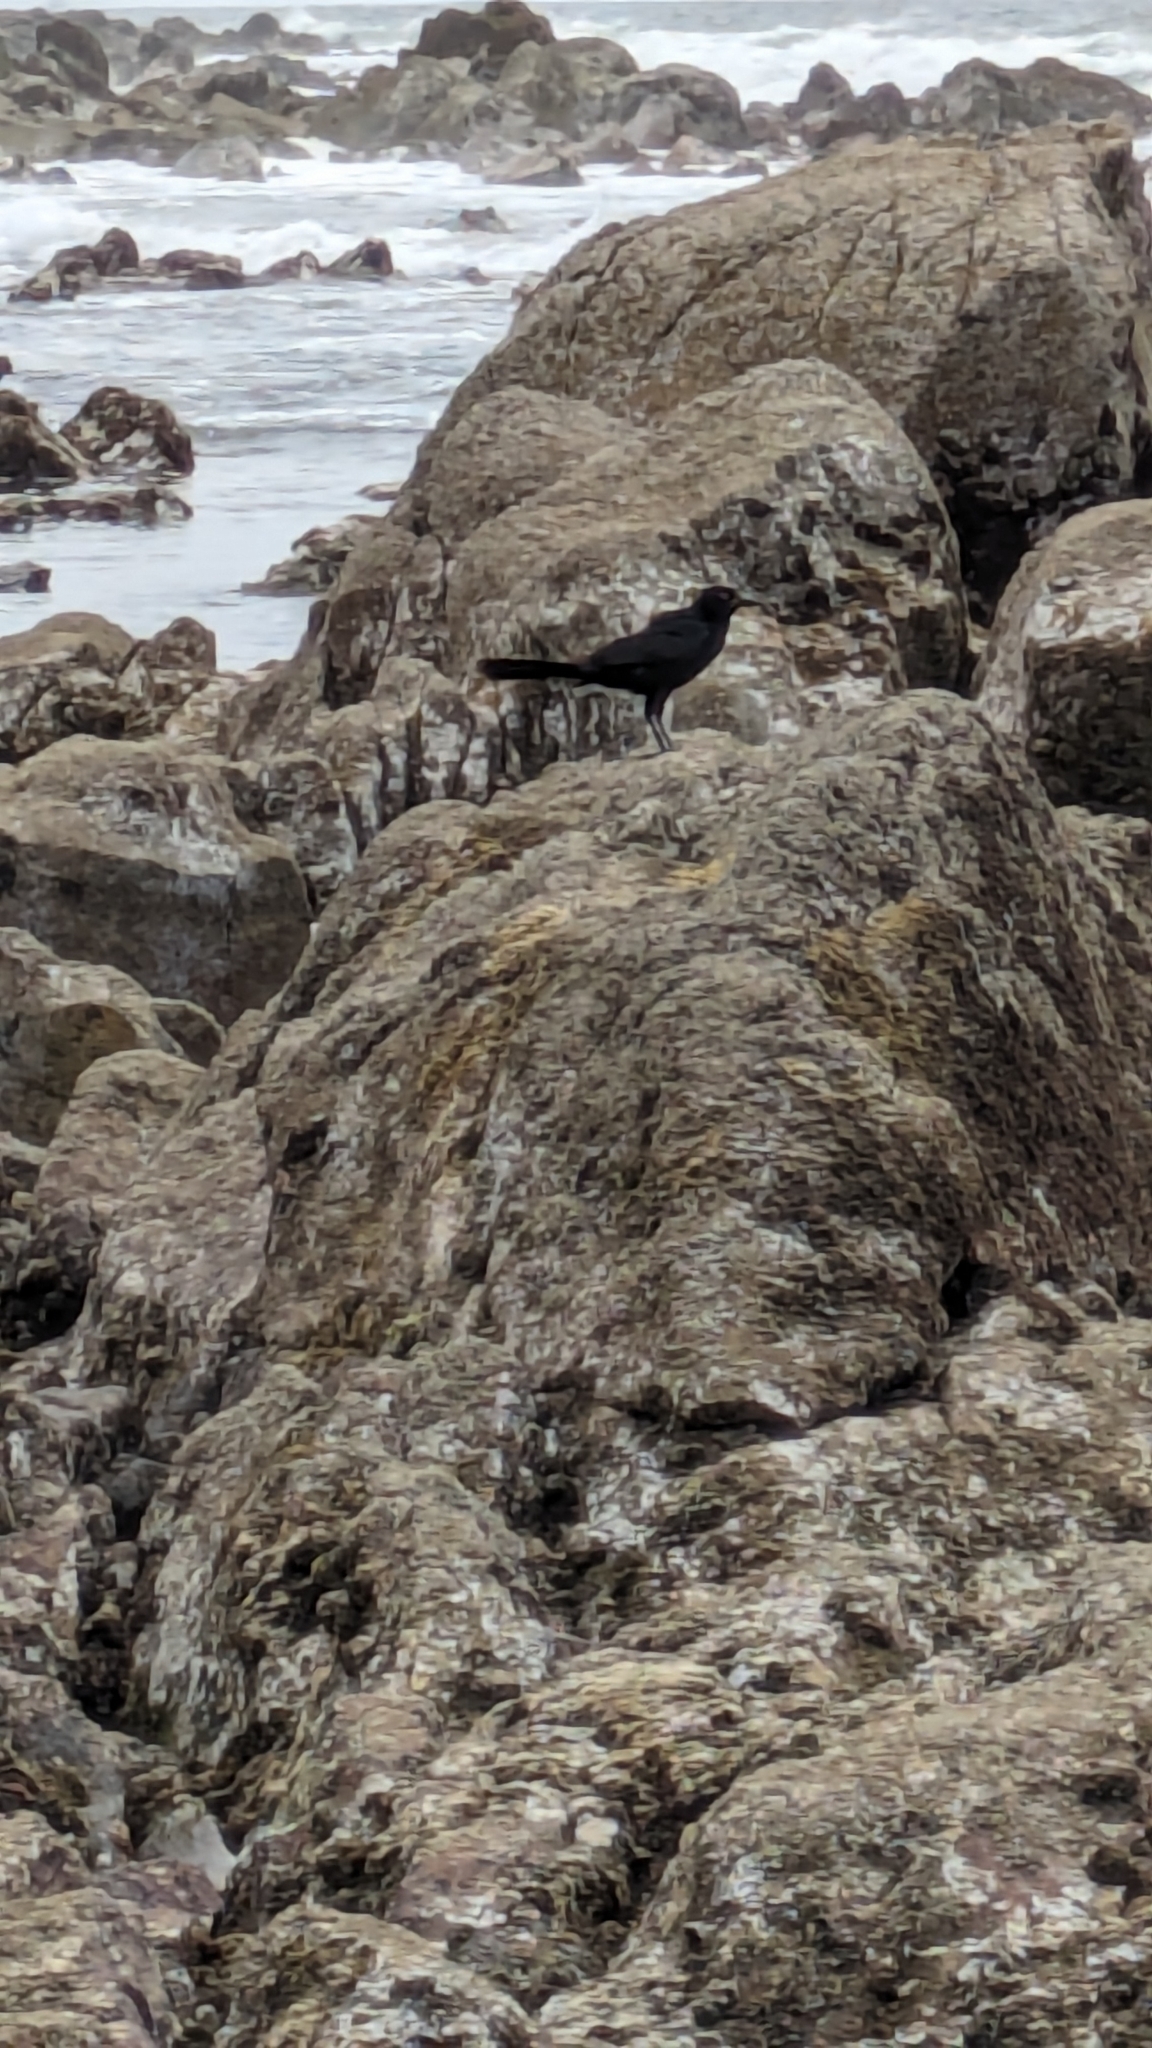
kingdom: Animalia
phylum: Chordata
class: Aves
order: Passeriformes
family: Icteridae
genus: Quiscalus
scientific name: Quiscalus mexicanus
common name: Great-tailed grackle
